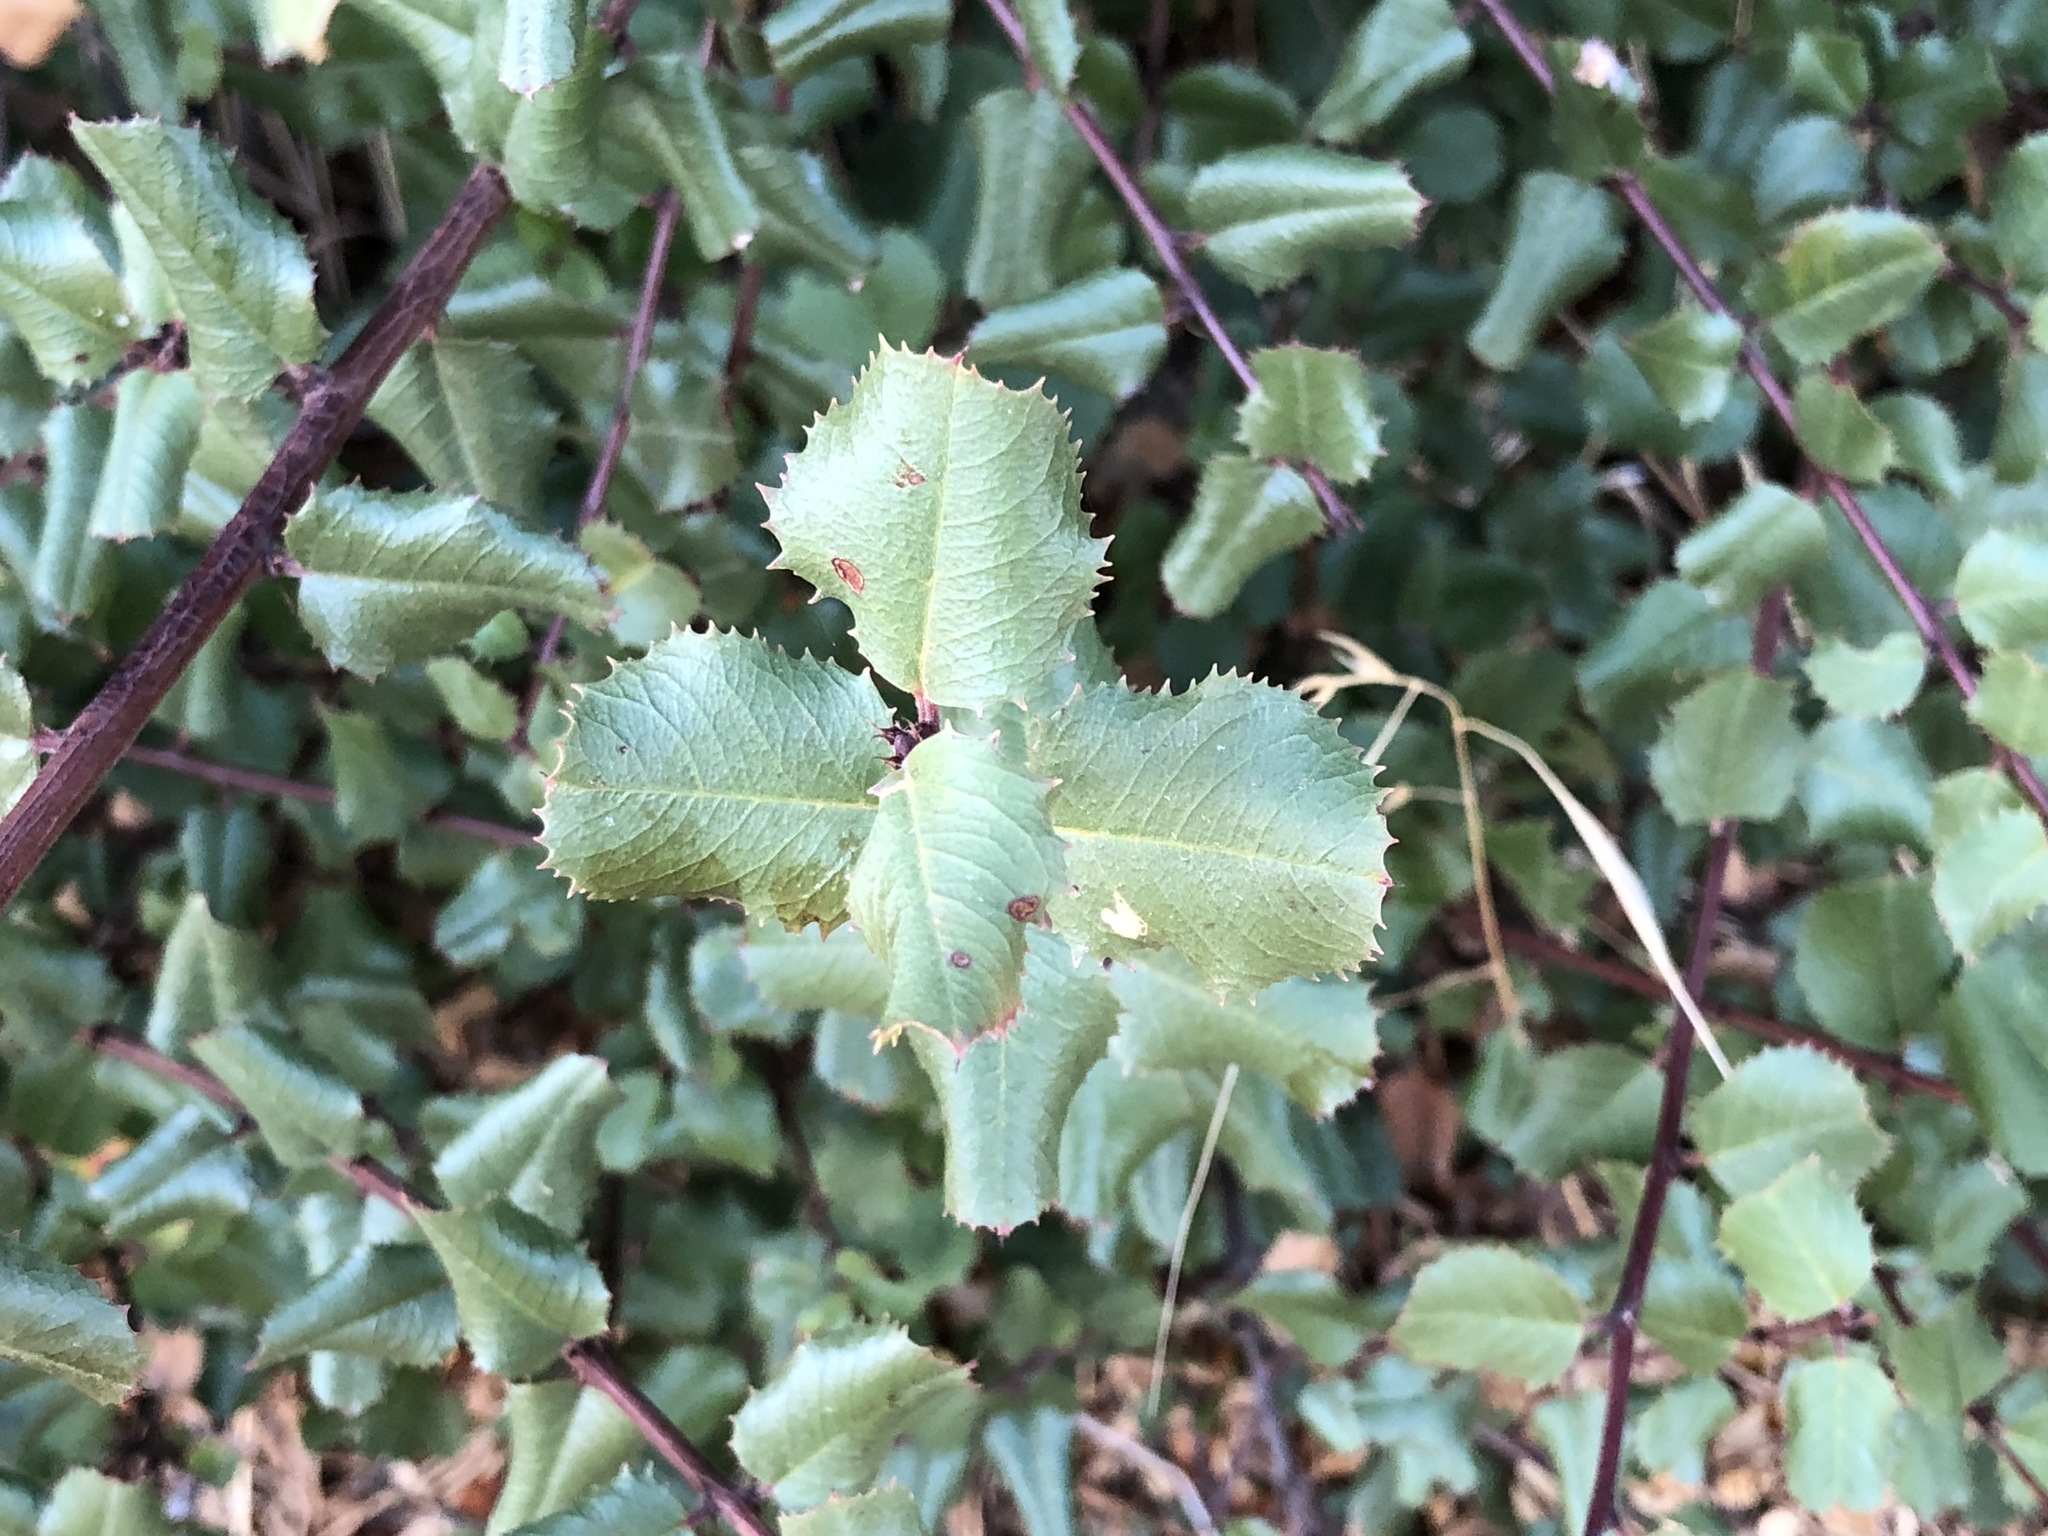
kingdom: Plantae
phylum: Tracheophyta
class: Magnoliopsida
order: Rosales
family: Rosaceae
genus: Prunus
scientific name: Prunus ilicifolia
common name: Hollyleaf cherry
